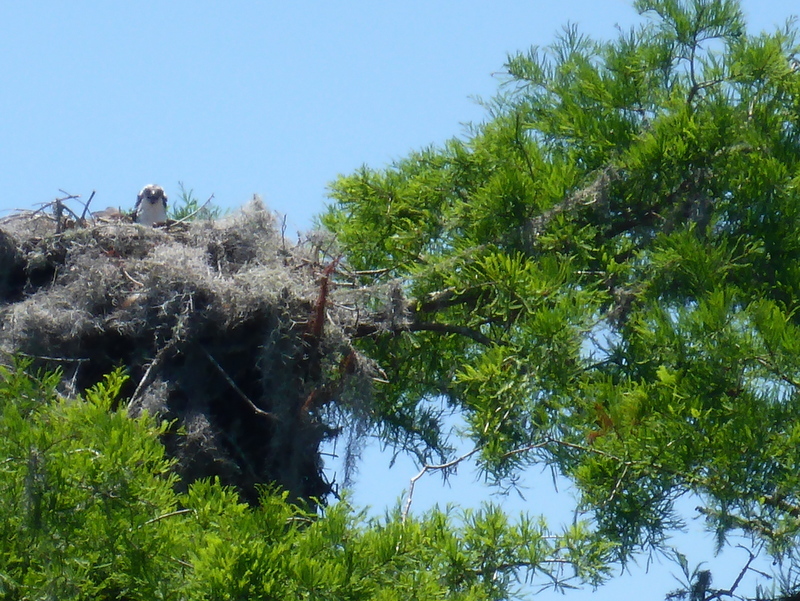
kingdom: Animalia
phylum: Chordata
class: Aves
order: Accipitriformes
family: Pandionidae
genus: Pandion
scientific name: Pandion haliaetus
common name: Osprey
